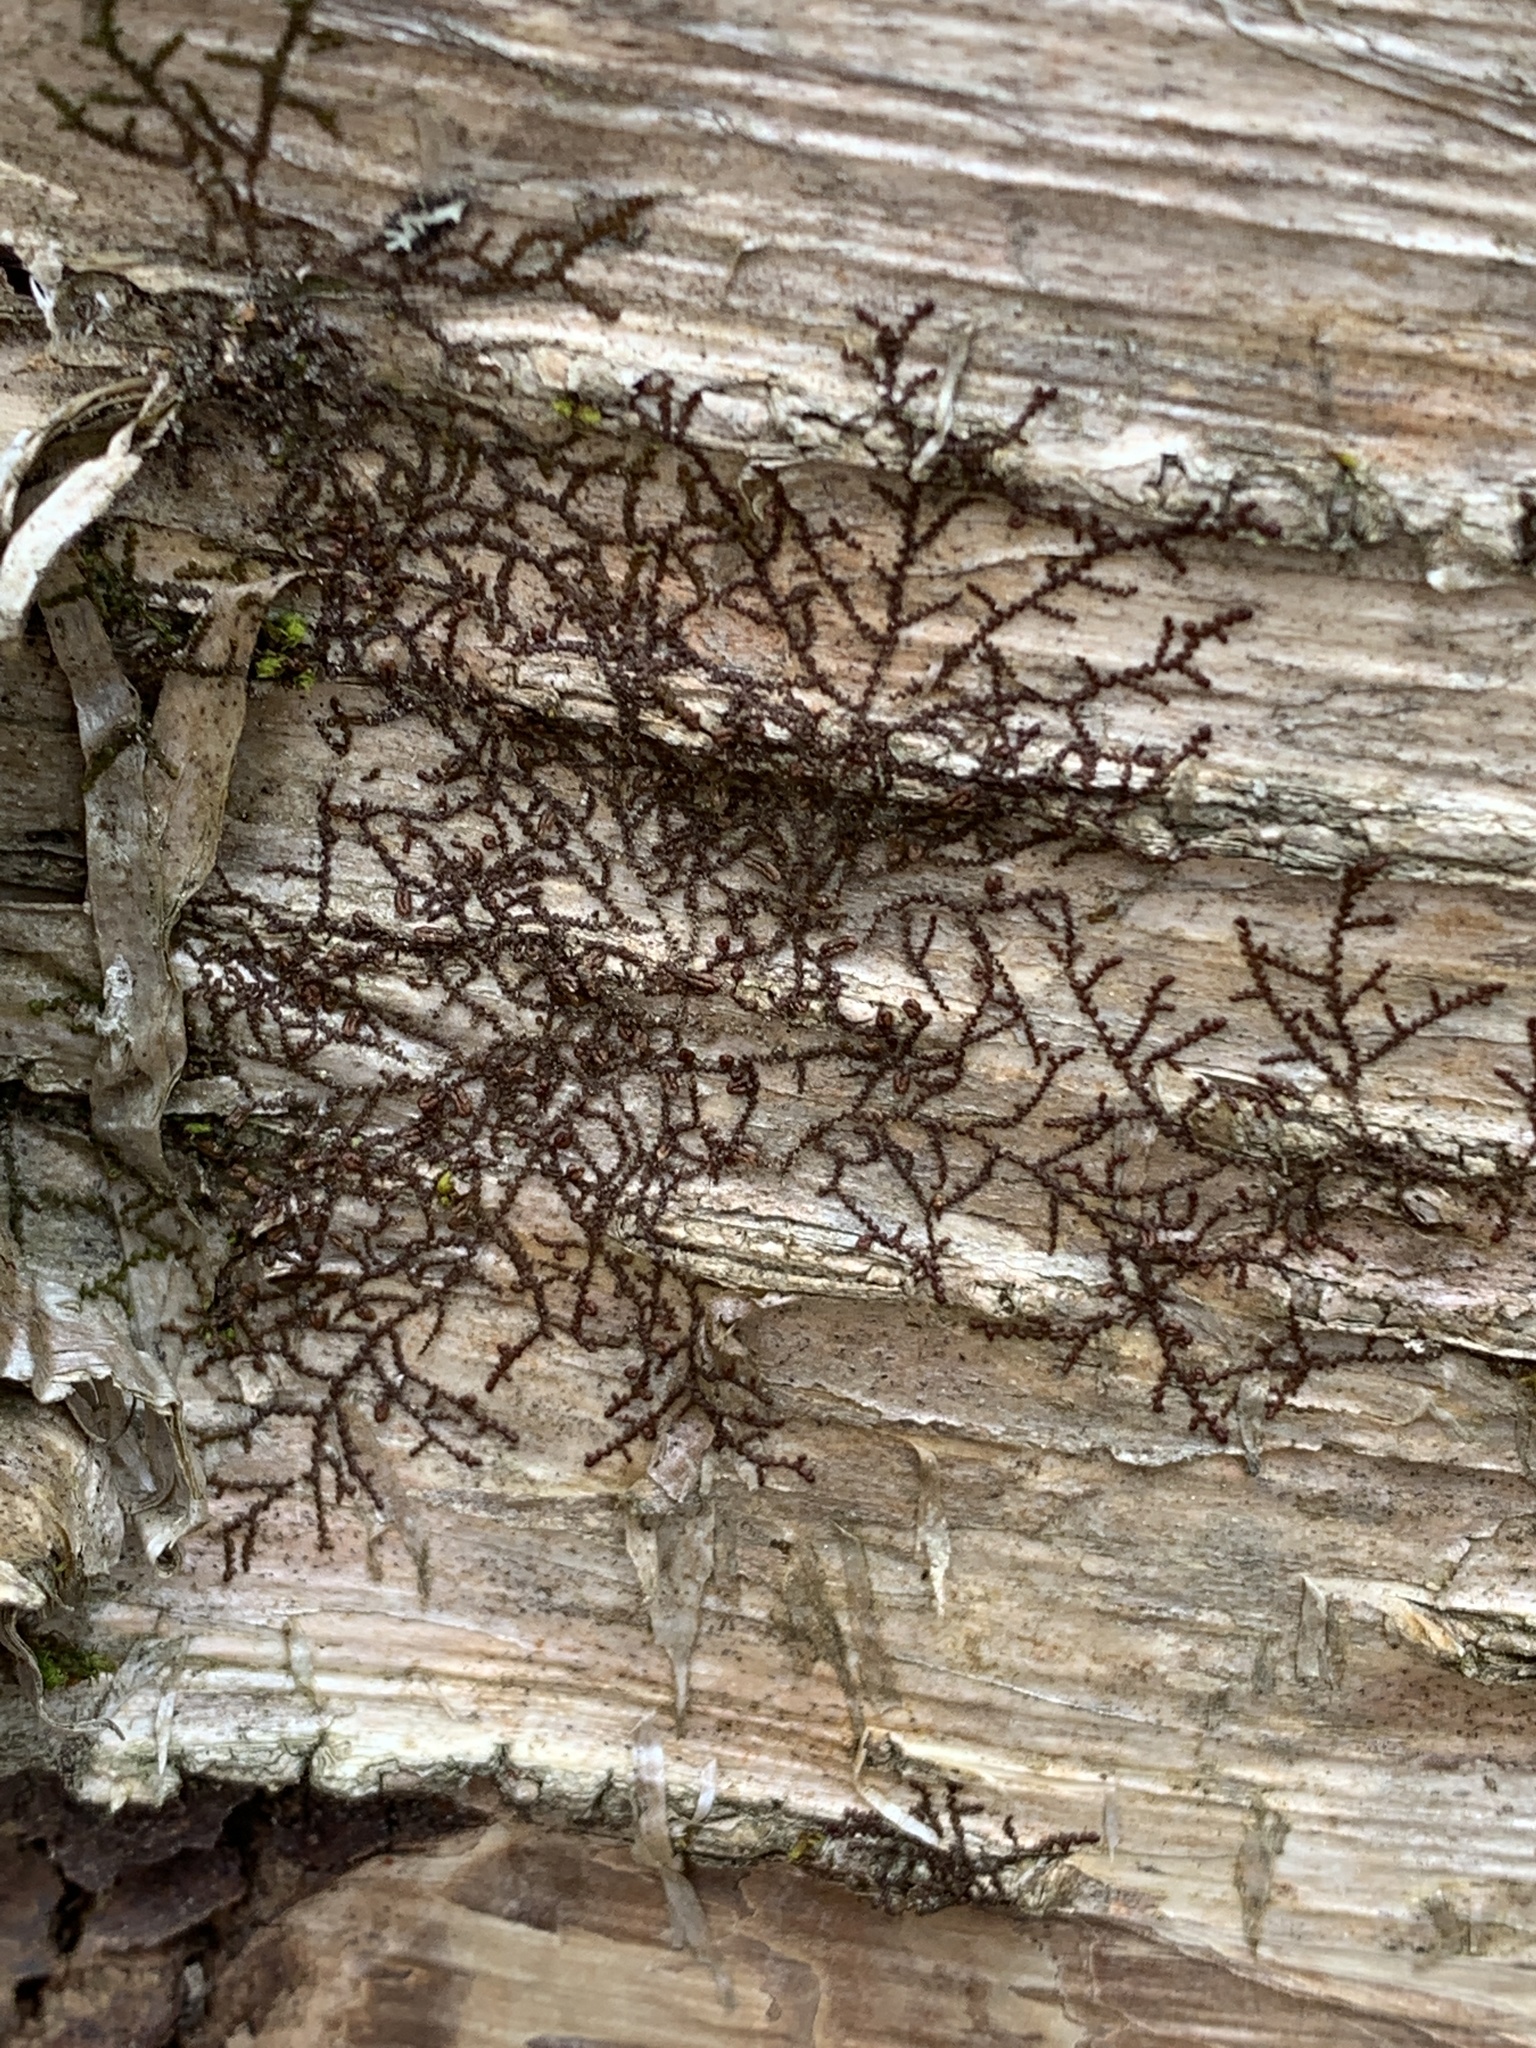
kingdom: Plantae
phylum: Marchantiophyta
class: Jungermanniopsida
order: Porellales
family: Frullaniaceae
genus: Frullania
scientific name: Frullania eboracensis
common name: New york scalewort
